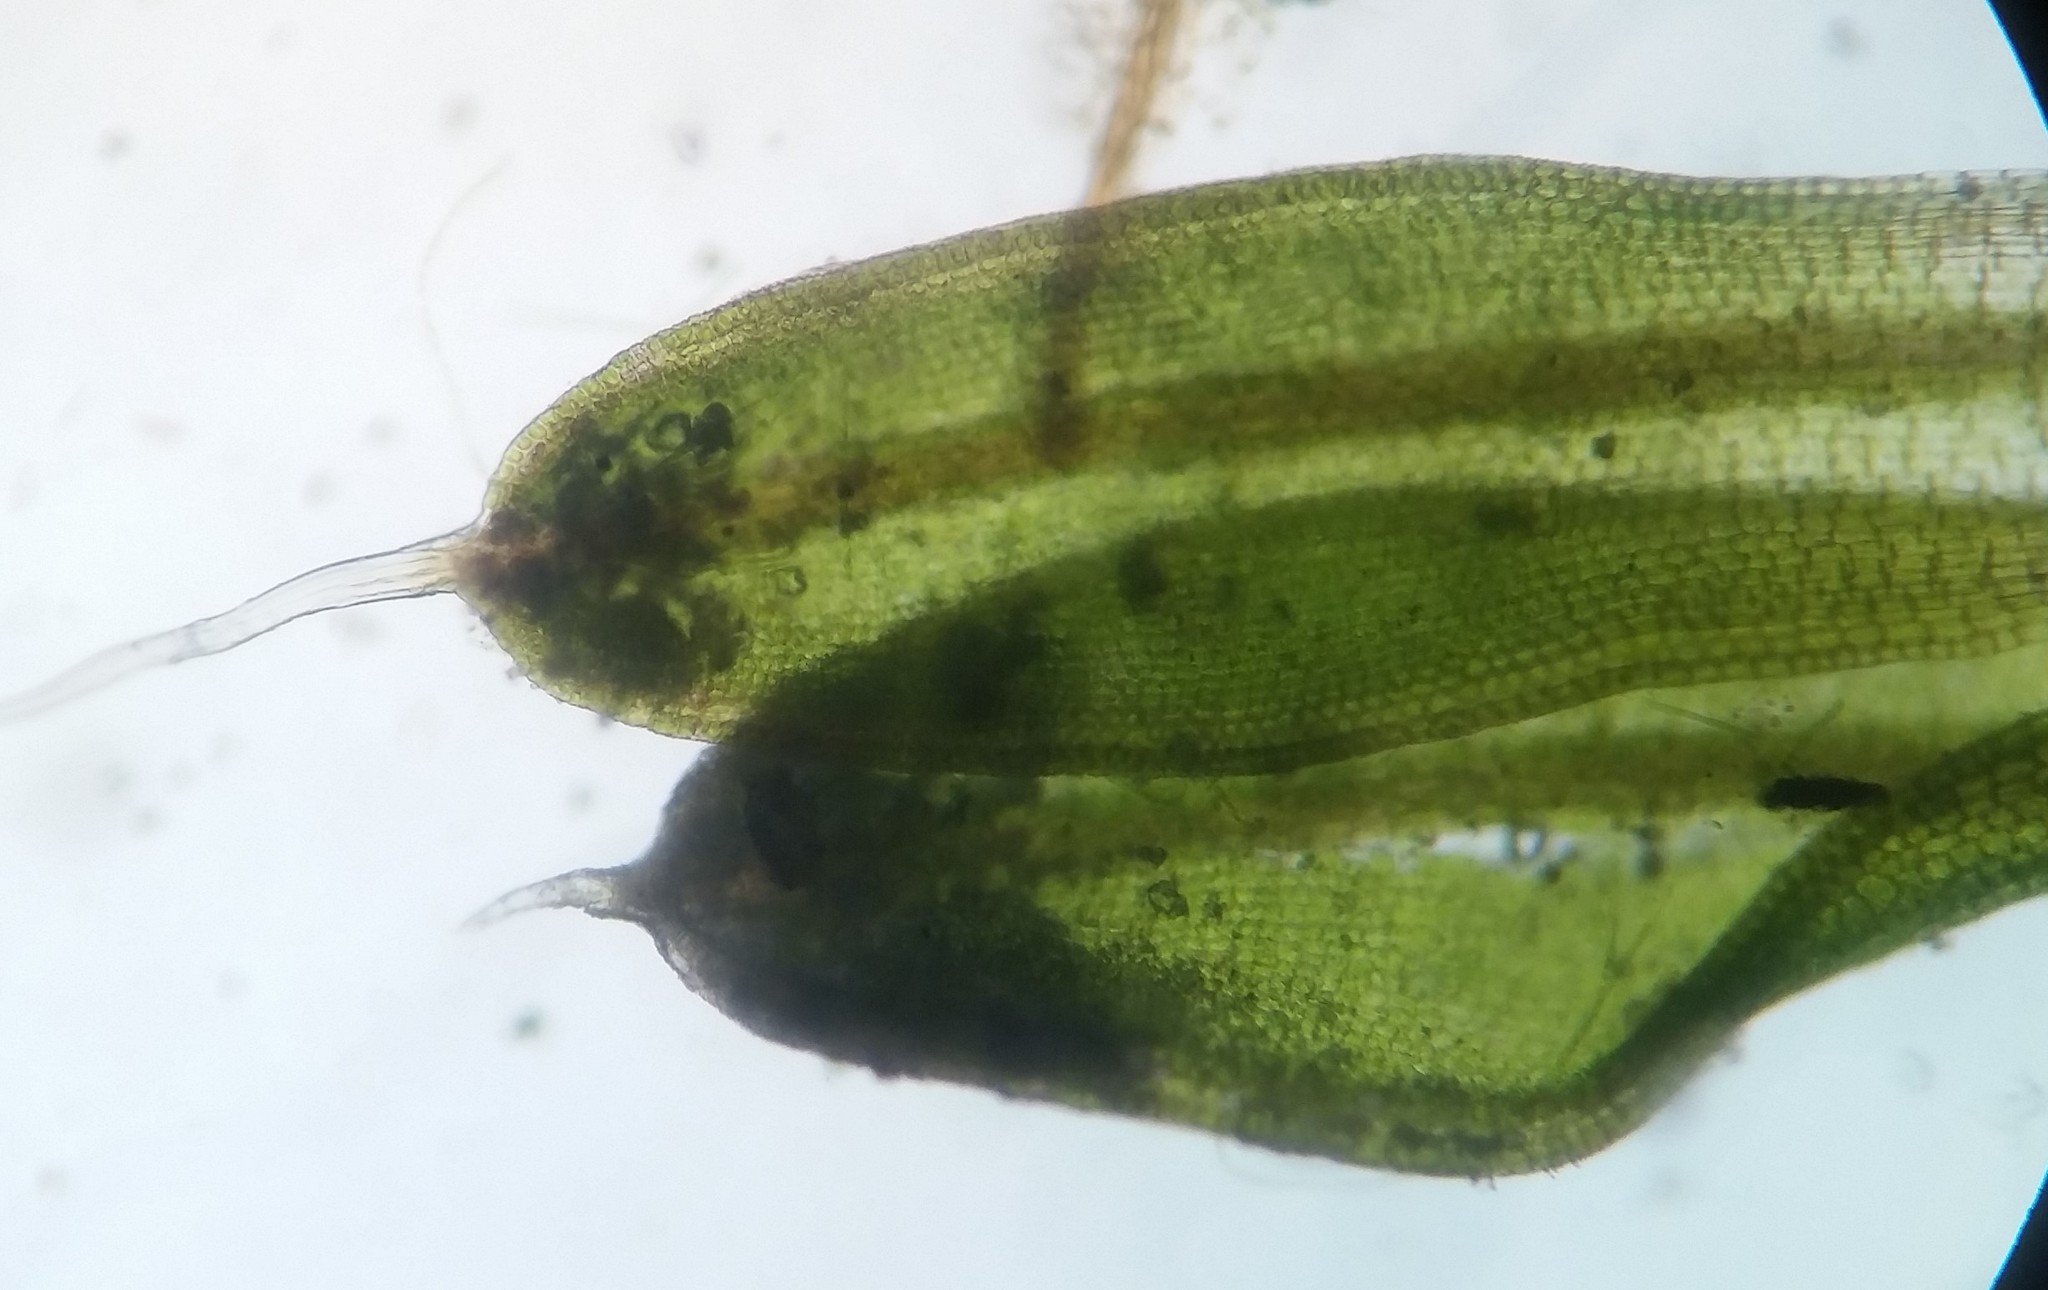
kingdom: Plantae
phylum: Bryophyta
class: Bryopsida
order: Pottiales
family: Pottiaceae
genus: Tortula
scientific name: Tortula muralis
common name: Wall screw-moss
